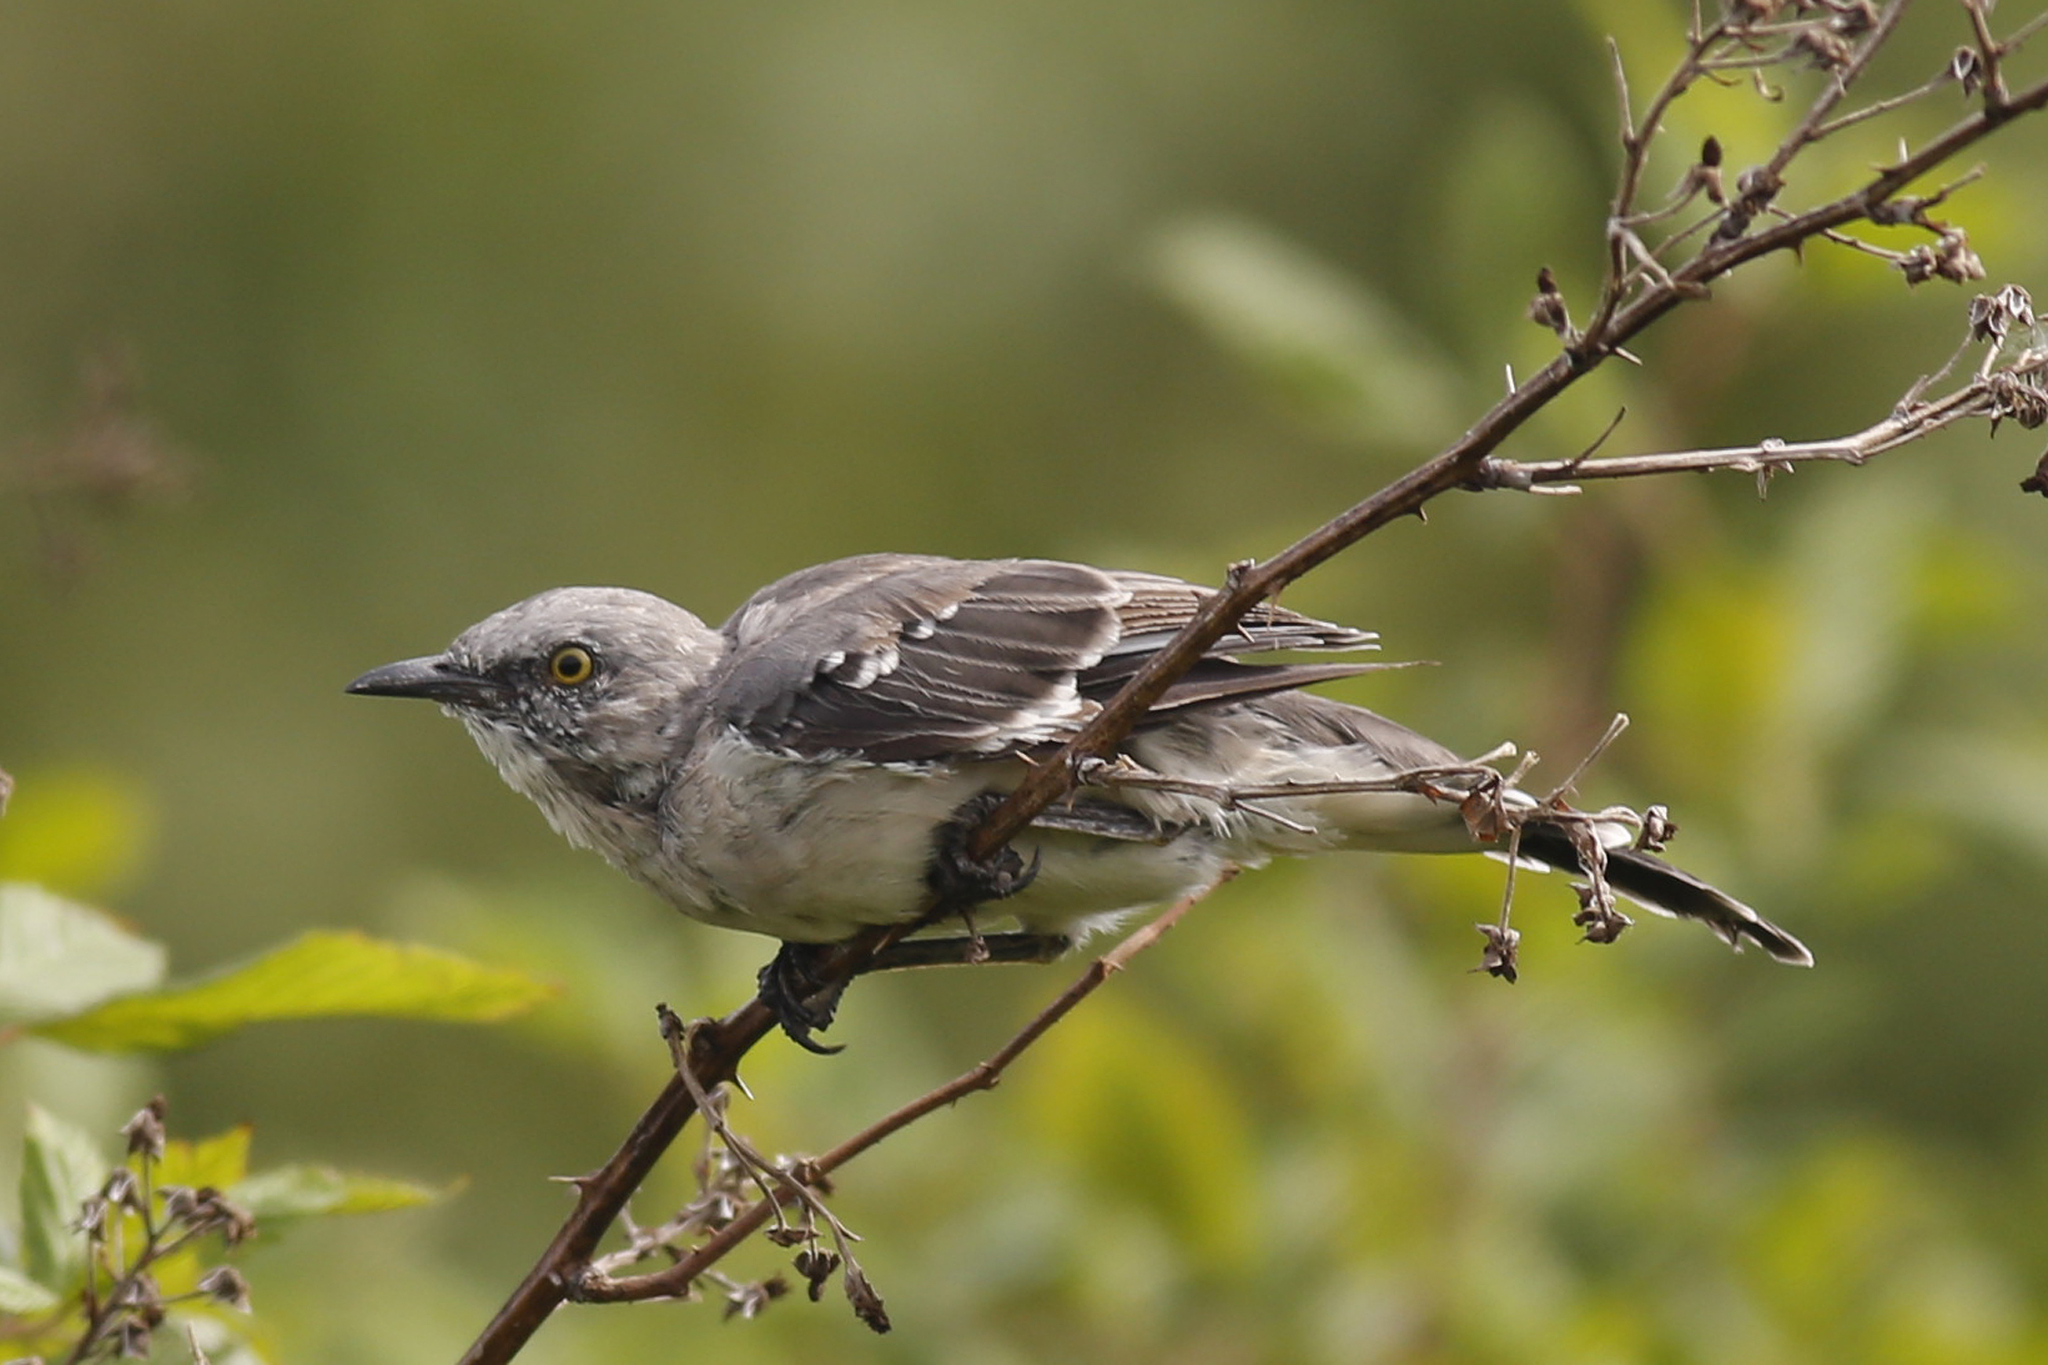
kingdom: Animalia
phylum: Chordata
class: Aves
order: Passeriformes
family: Mimidae
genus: Mimus
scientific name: Mimus polyglottos
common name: Northern mockingbird
